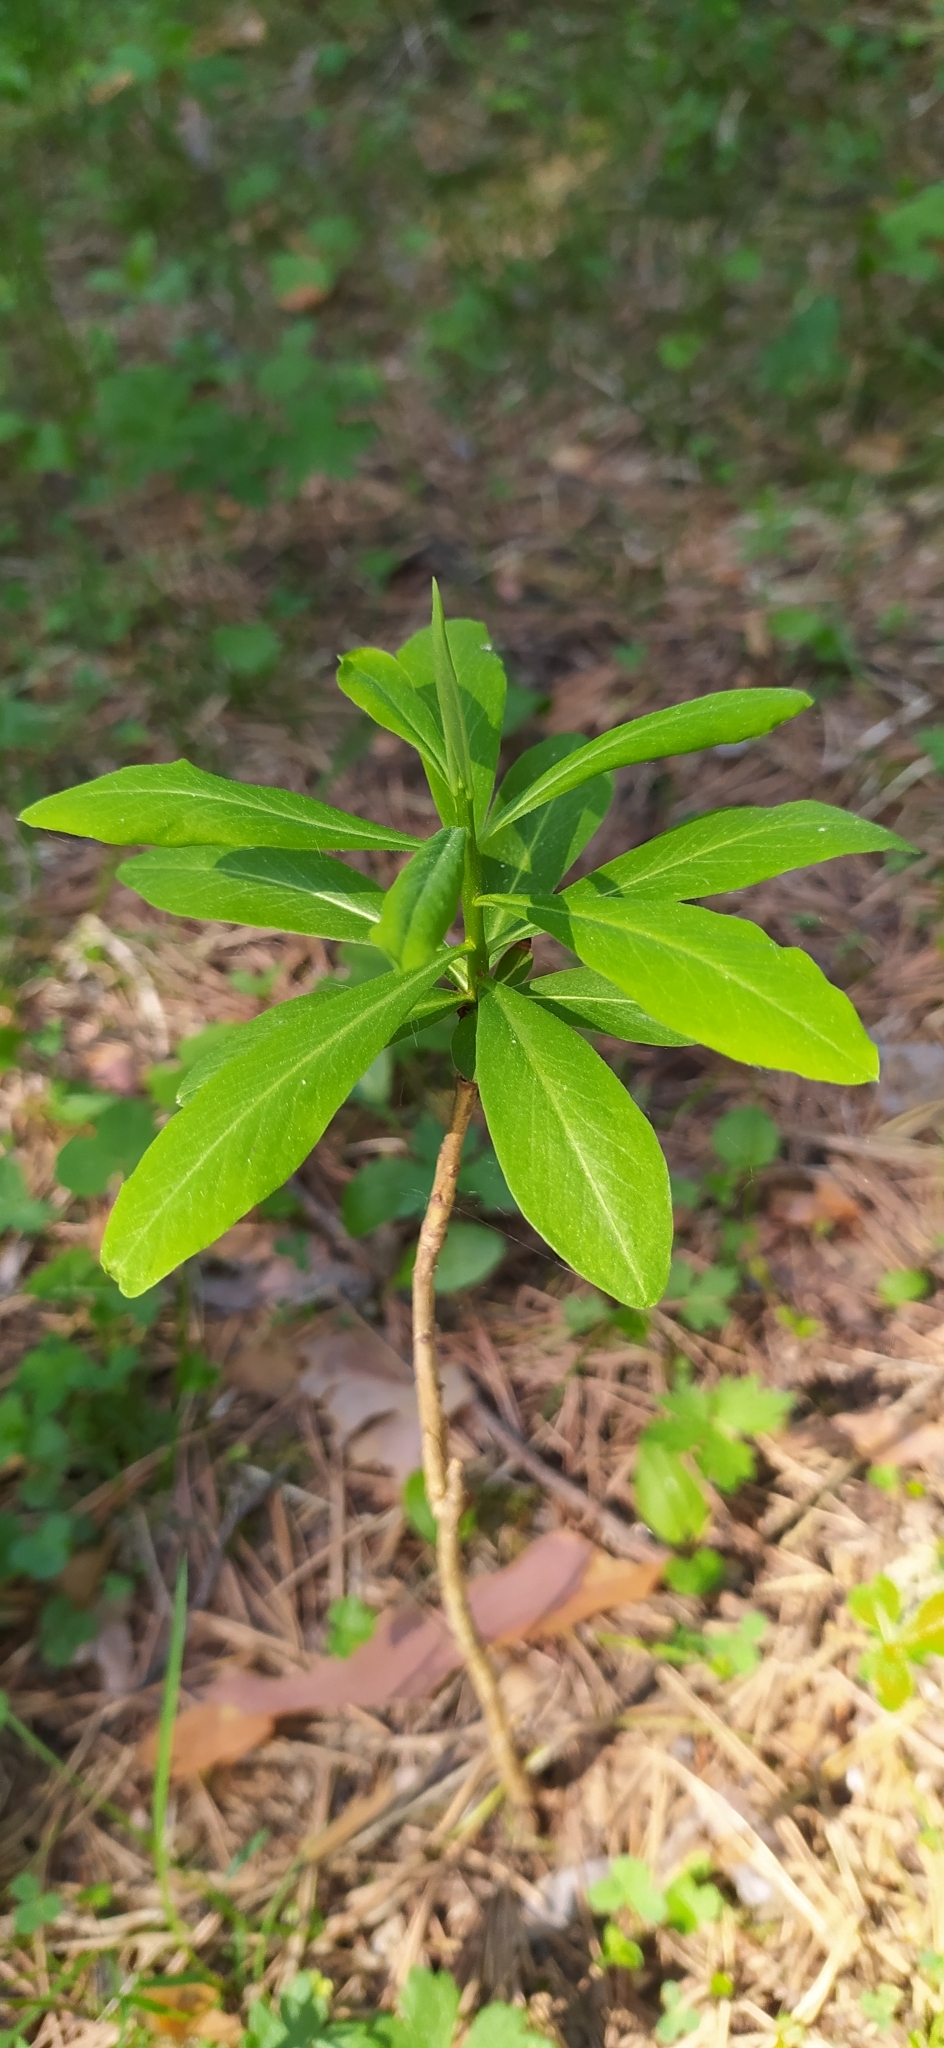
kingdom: Plantae
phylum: Tracheophyta
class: Magnoliopsida
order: Malvales
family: Thymelaeaceae
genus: Daphne
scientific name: Daphne mezereum
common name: Mezereon
